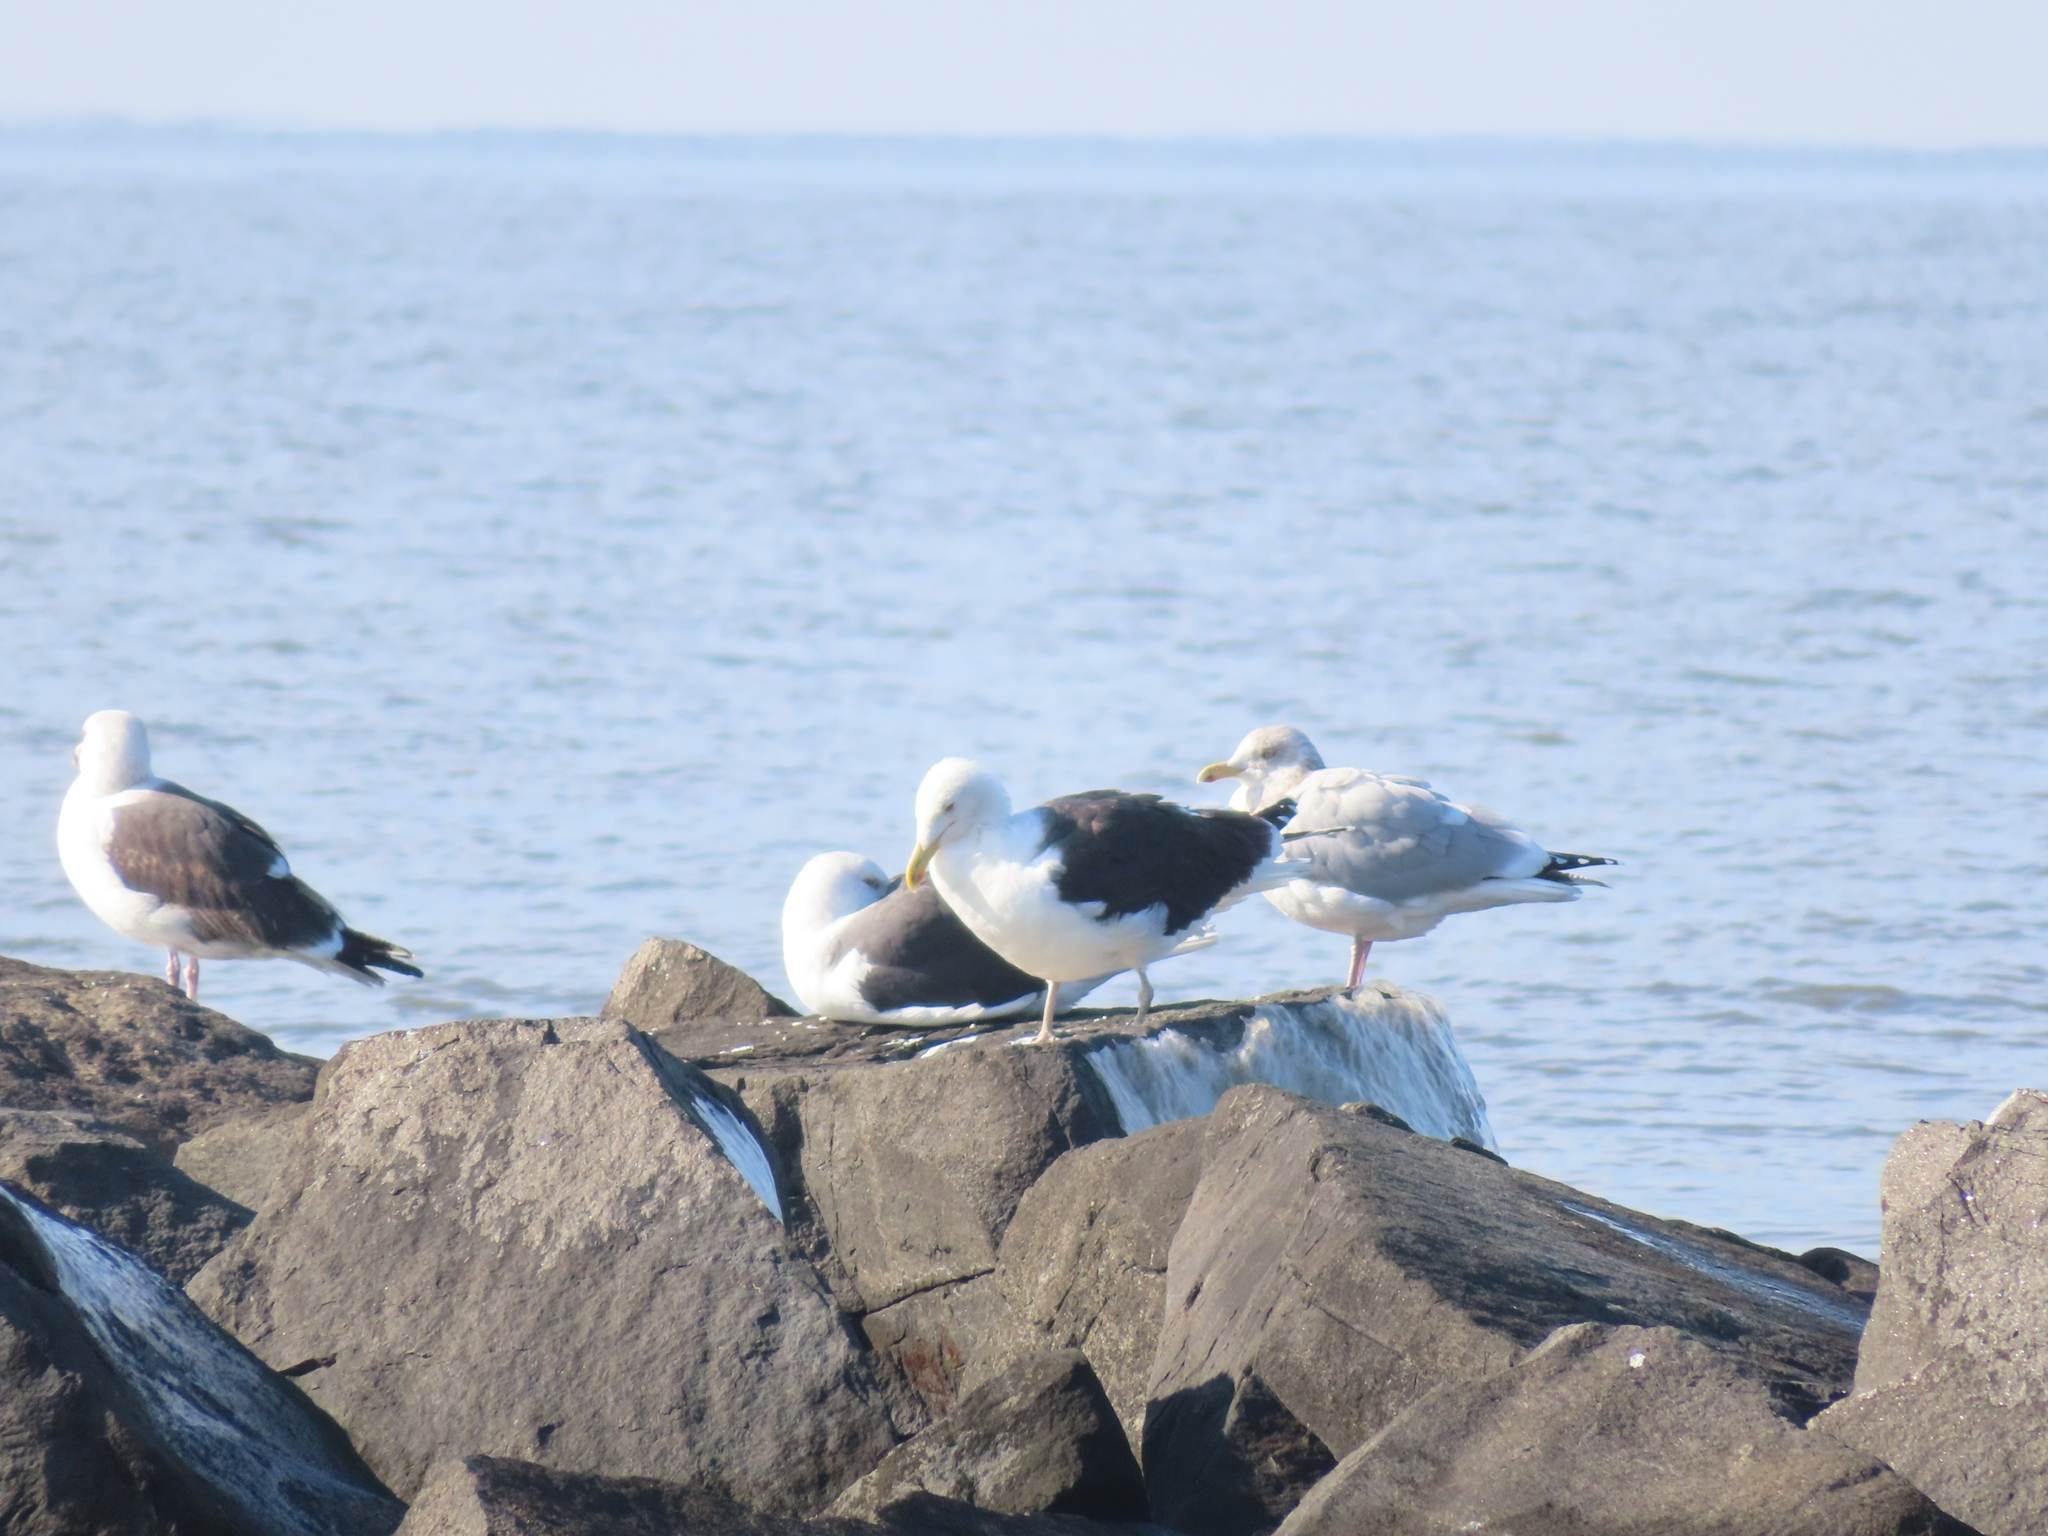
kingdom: Animalia
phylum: Chordata
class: Aves
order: Charadriiformes
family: Laridae
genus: Larus
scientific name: Larus marinus
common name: Great black-backed gull
